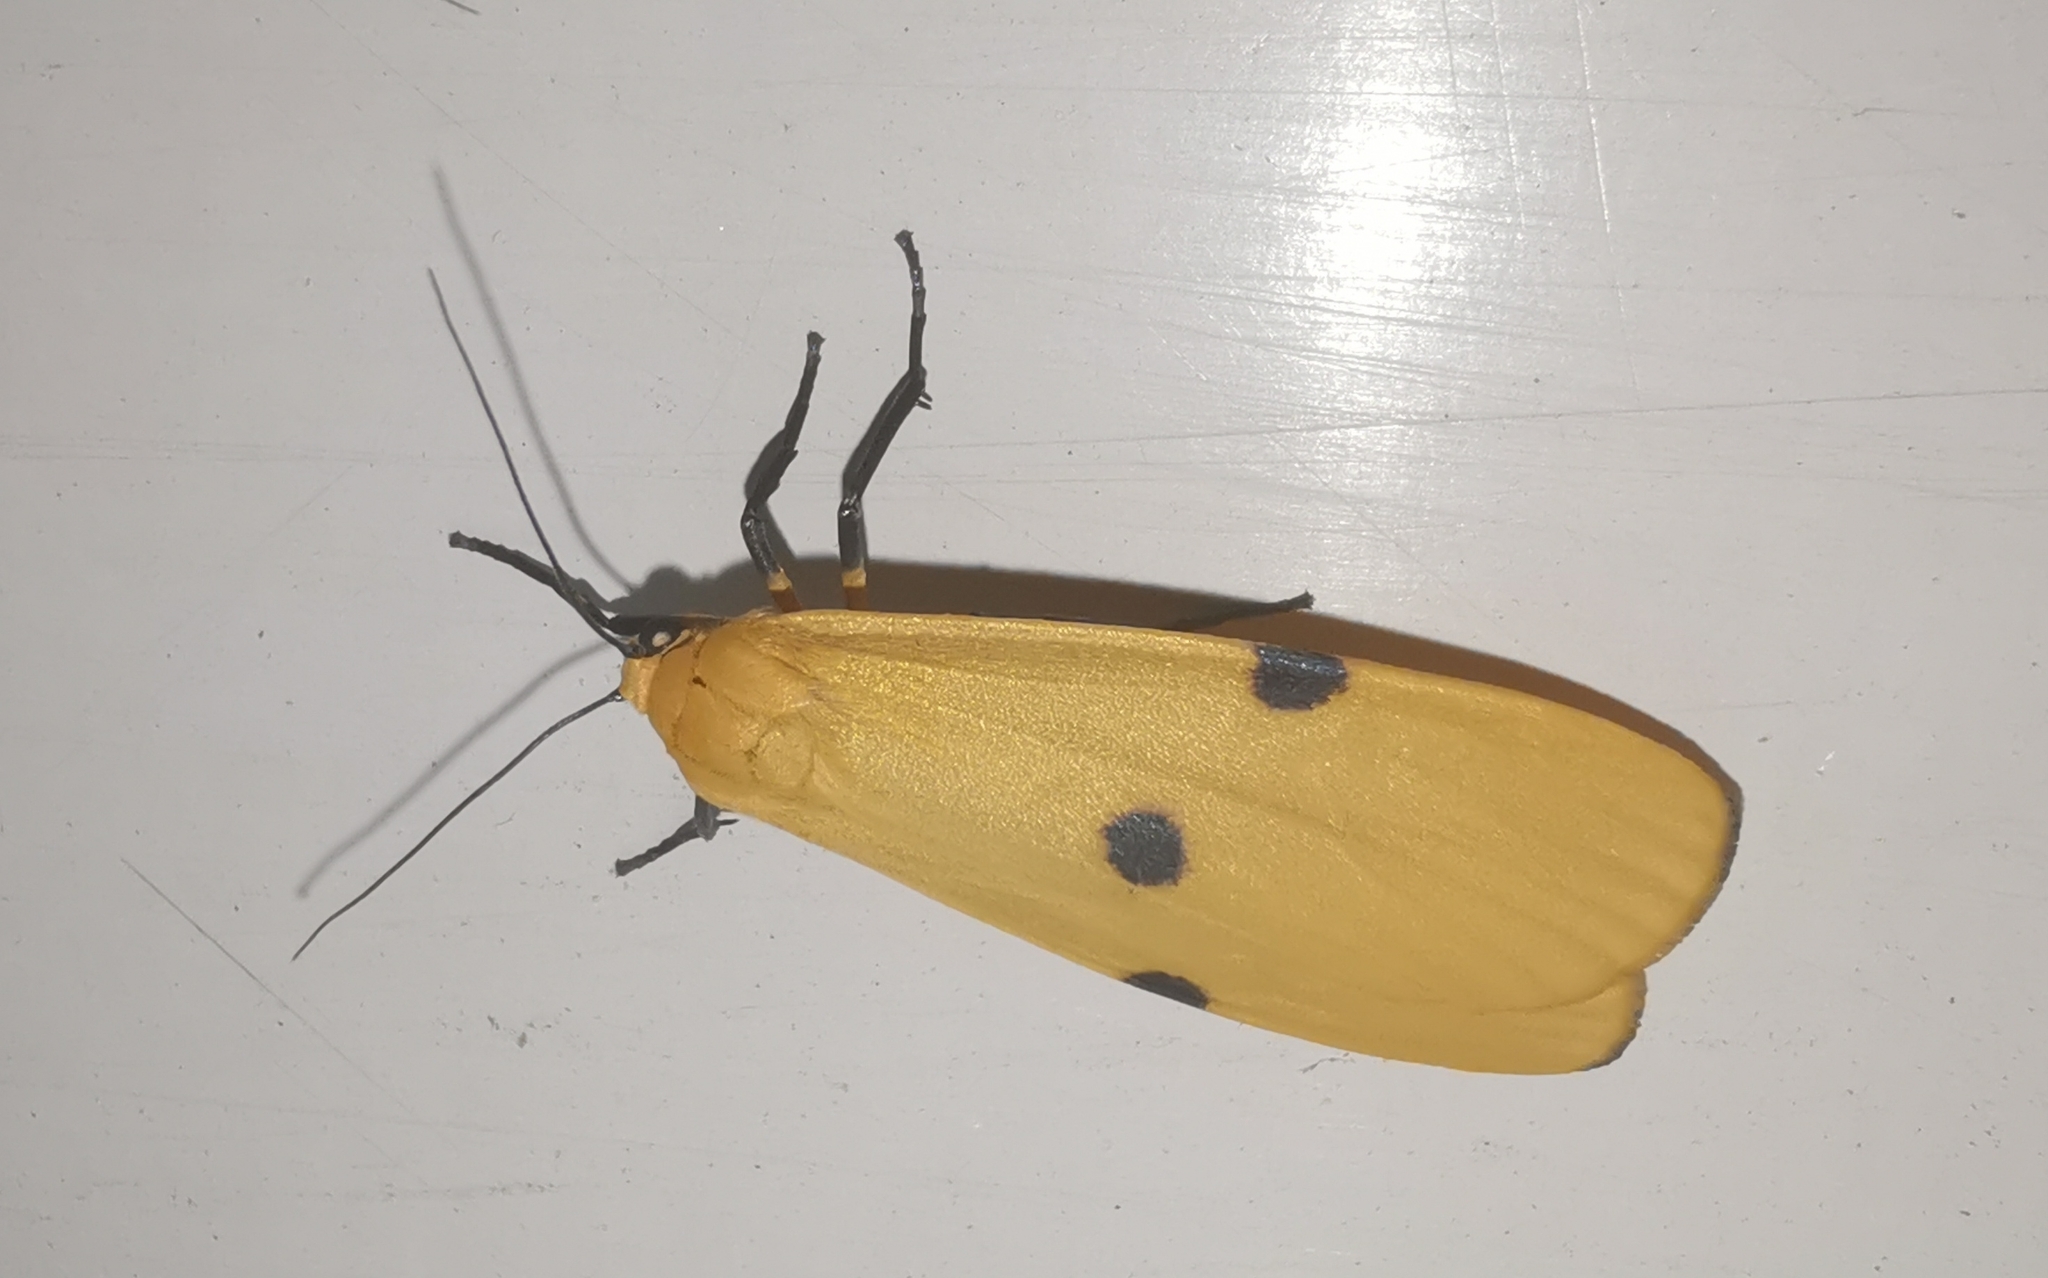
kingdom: Animalia
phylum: Arthropoda
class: Insecta
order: Lepidoptera
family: Erebidae
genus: Lithosia
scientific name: Lithosia quadra
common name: Four-spotted footman
